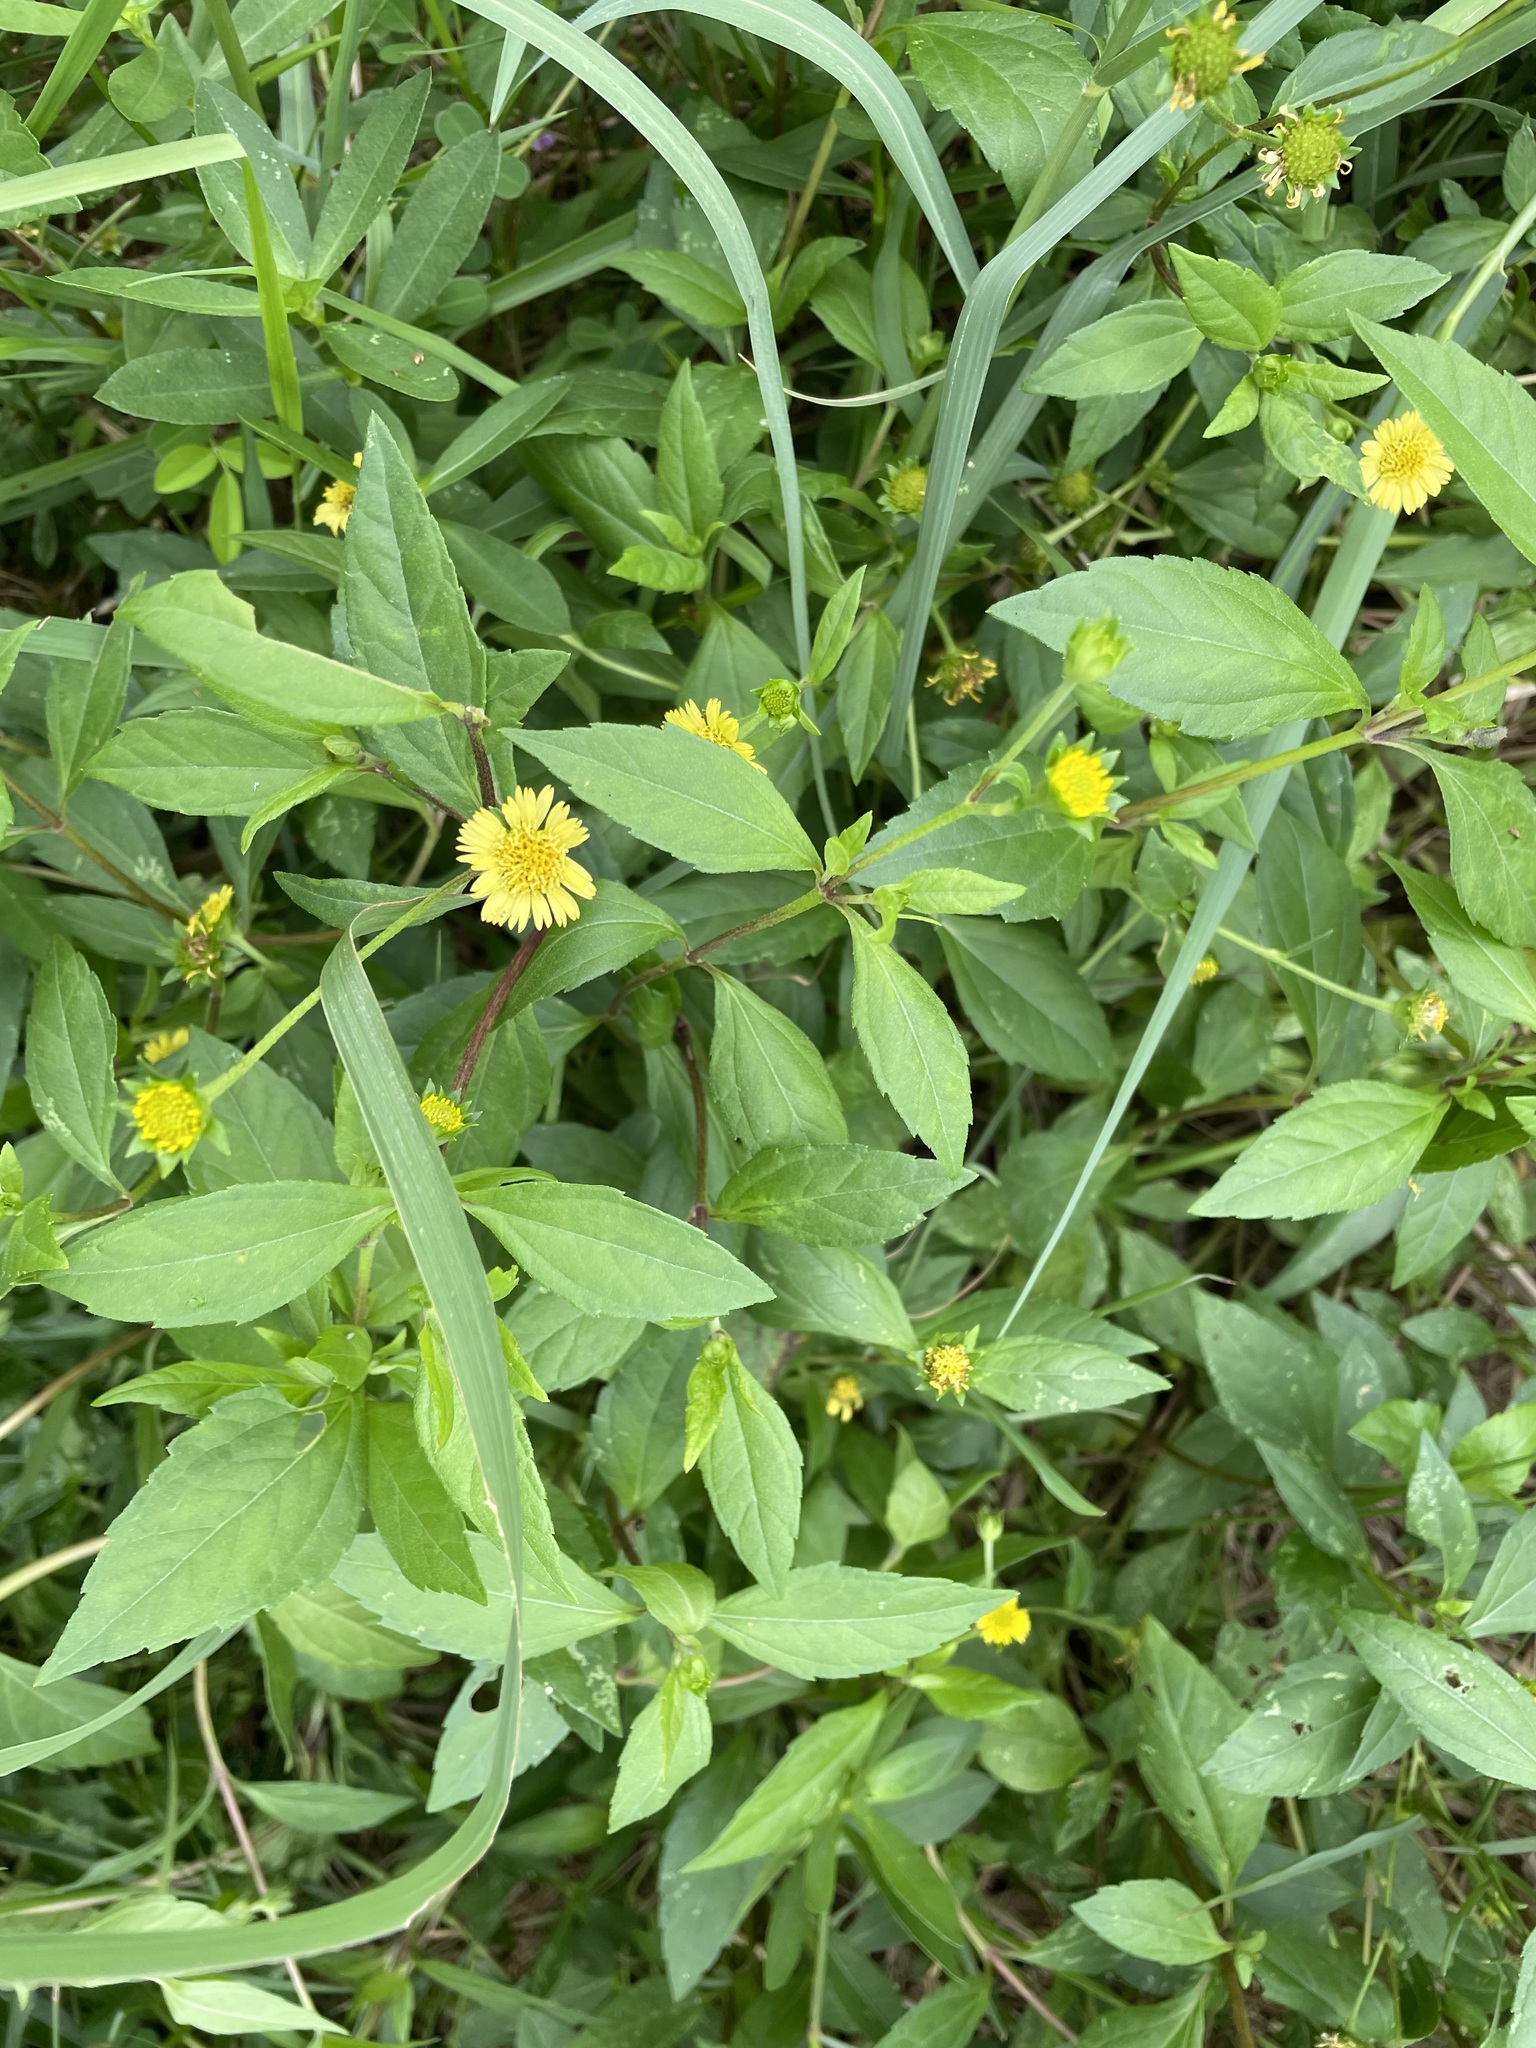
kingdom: Plantae
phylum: Tracheophyta
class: Magnoliopsida
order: Asterales
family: Asteraceae
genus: Sphagneticola
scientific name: Sphagneticola trilobata
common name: Bay biscayne creeping-oxeye
